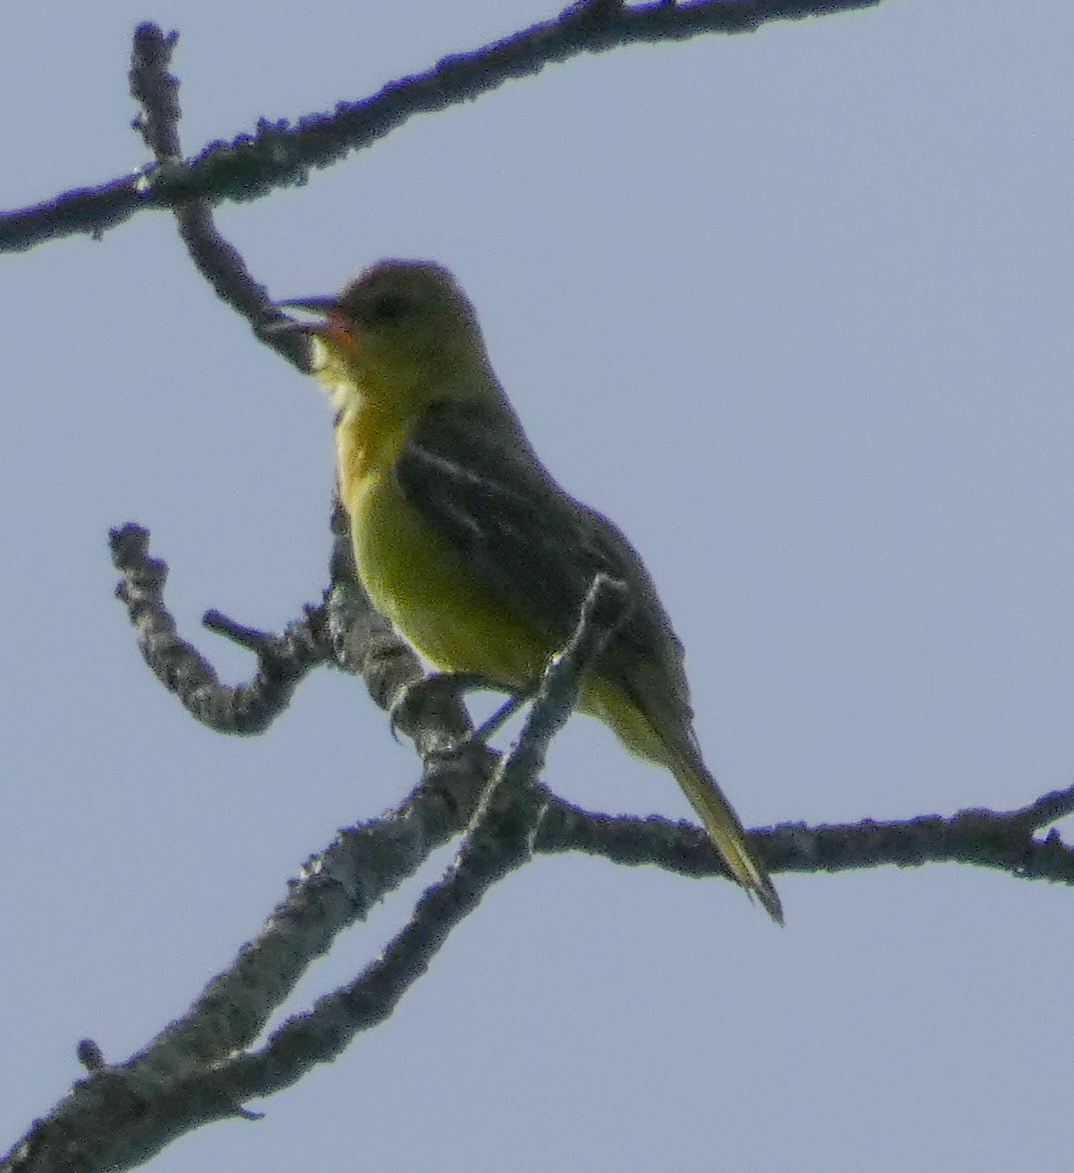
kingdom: Animalia
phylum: Chordata
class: Aves
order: Passeriformes
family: Icteridae
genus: Icterus
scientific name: Icterus spurius
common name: Orchard oriole
